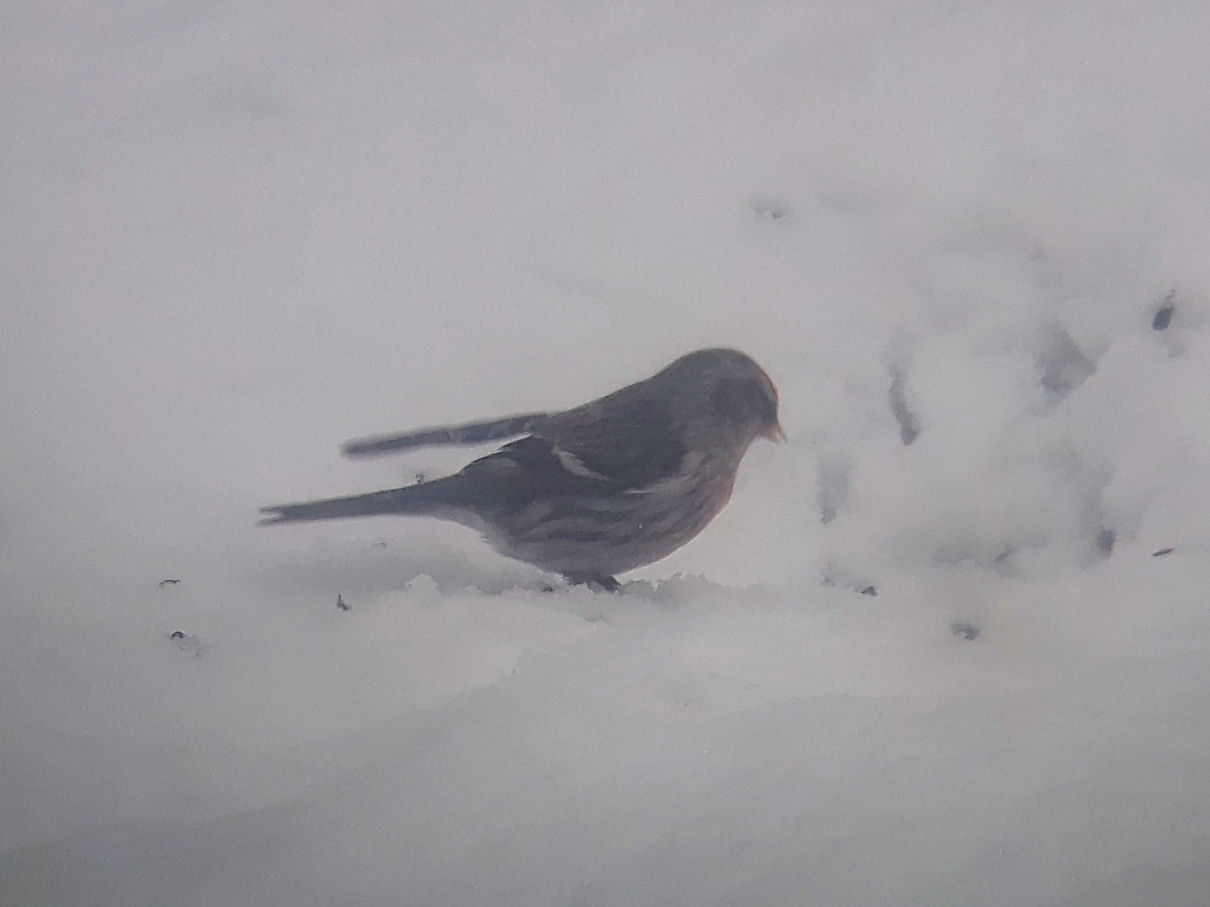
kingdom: Animalia
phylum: Chordata
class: Aves
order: Passeriformes
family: Fringillidae
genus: Acanthis
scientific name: Acanthis flammea
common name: Common redpoll
